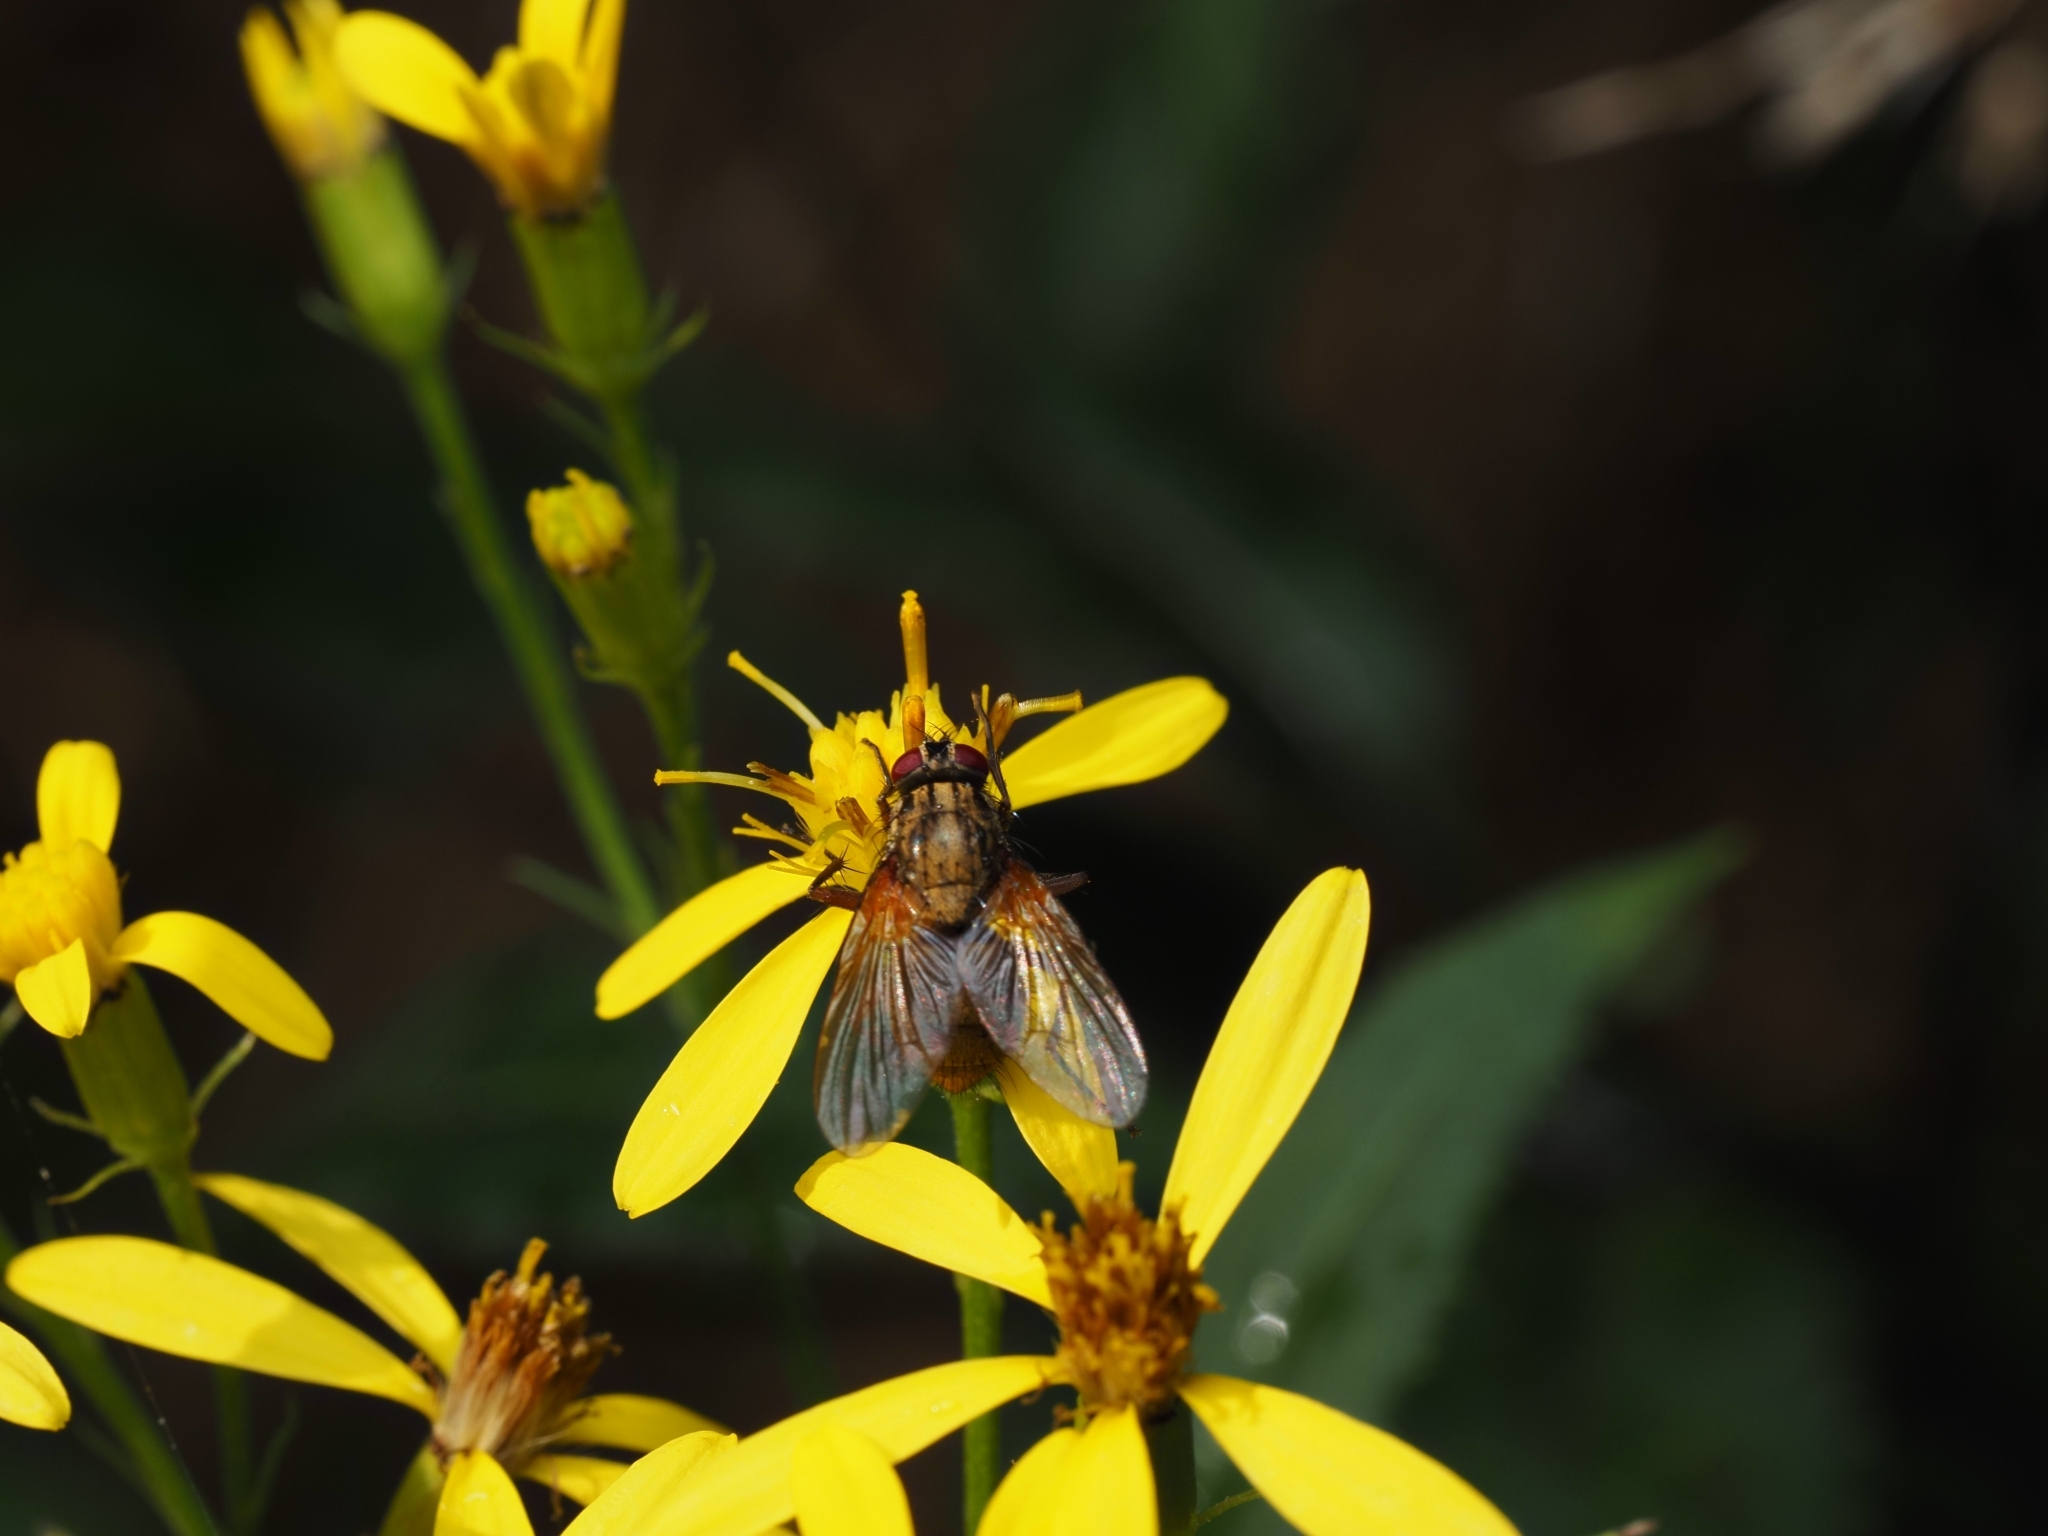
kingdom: Animalia
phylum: Arthropoda
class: Insecta
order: Diptera
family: Muscidae
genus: Phaonia
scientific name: Phaonia angelicae
